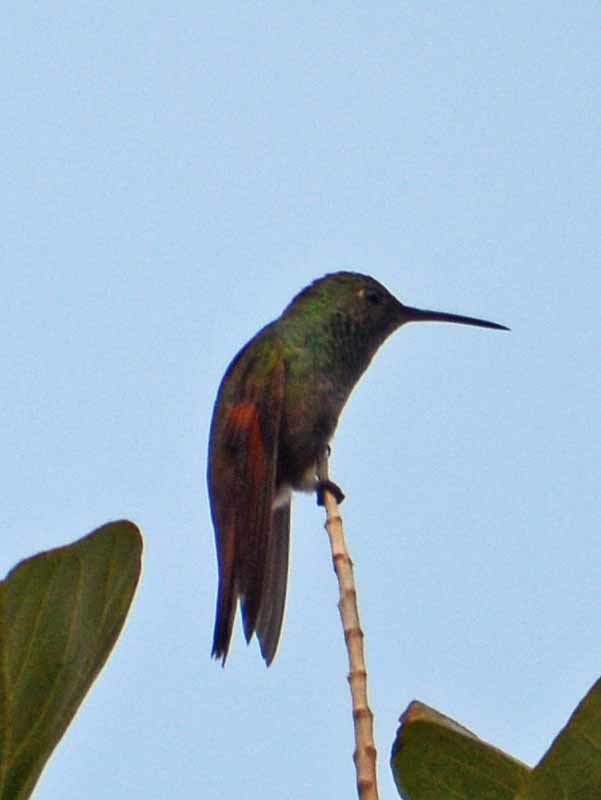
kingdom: Animalia
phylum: Chordata
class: Aves
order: Apodiformes
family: Trochilidae
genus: Saucerottia
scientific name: Saucerottia beryllina
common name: Berylline hummingbird
